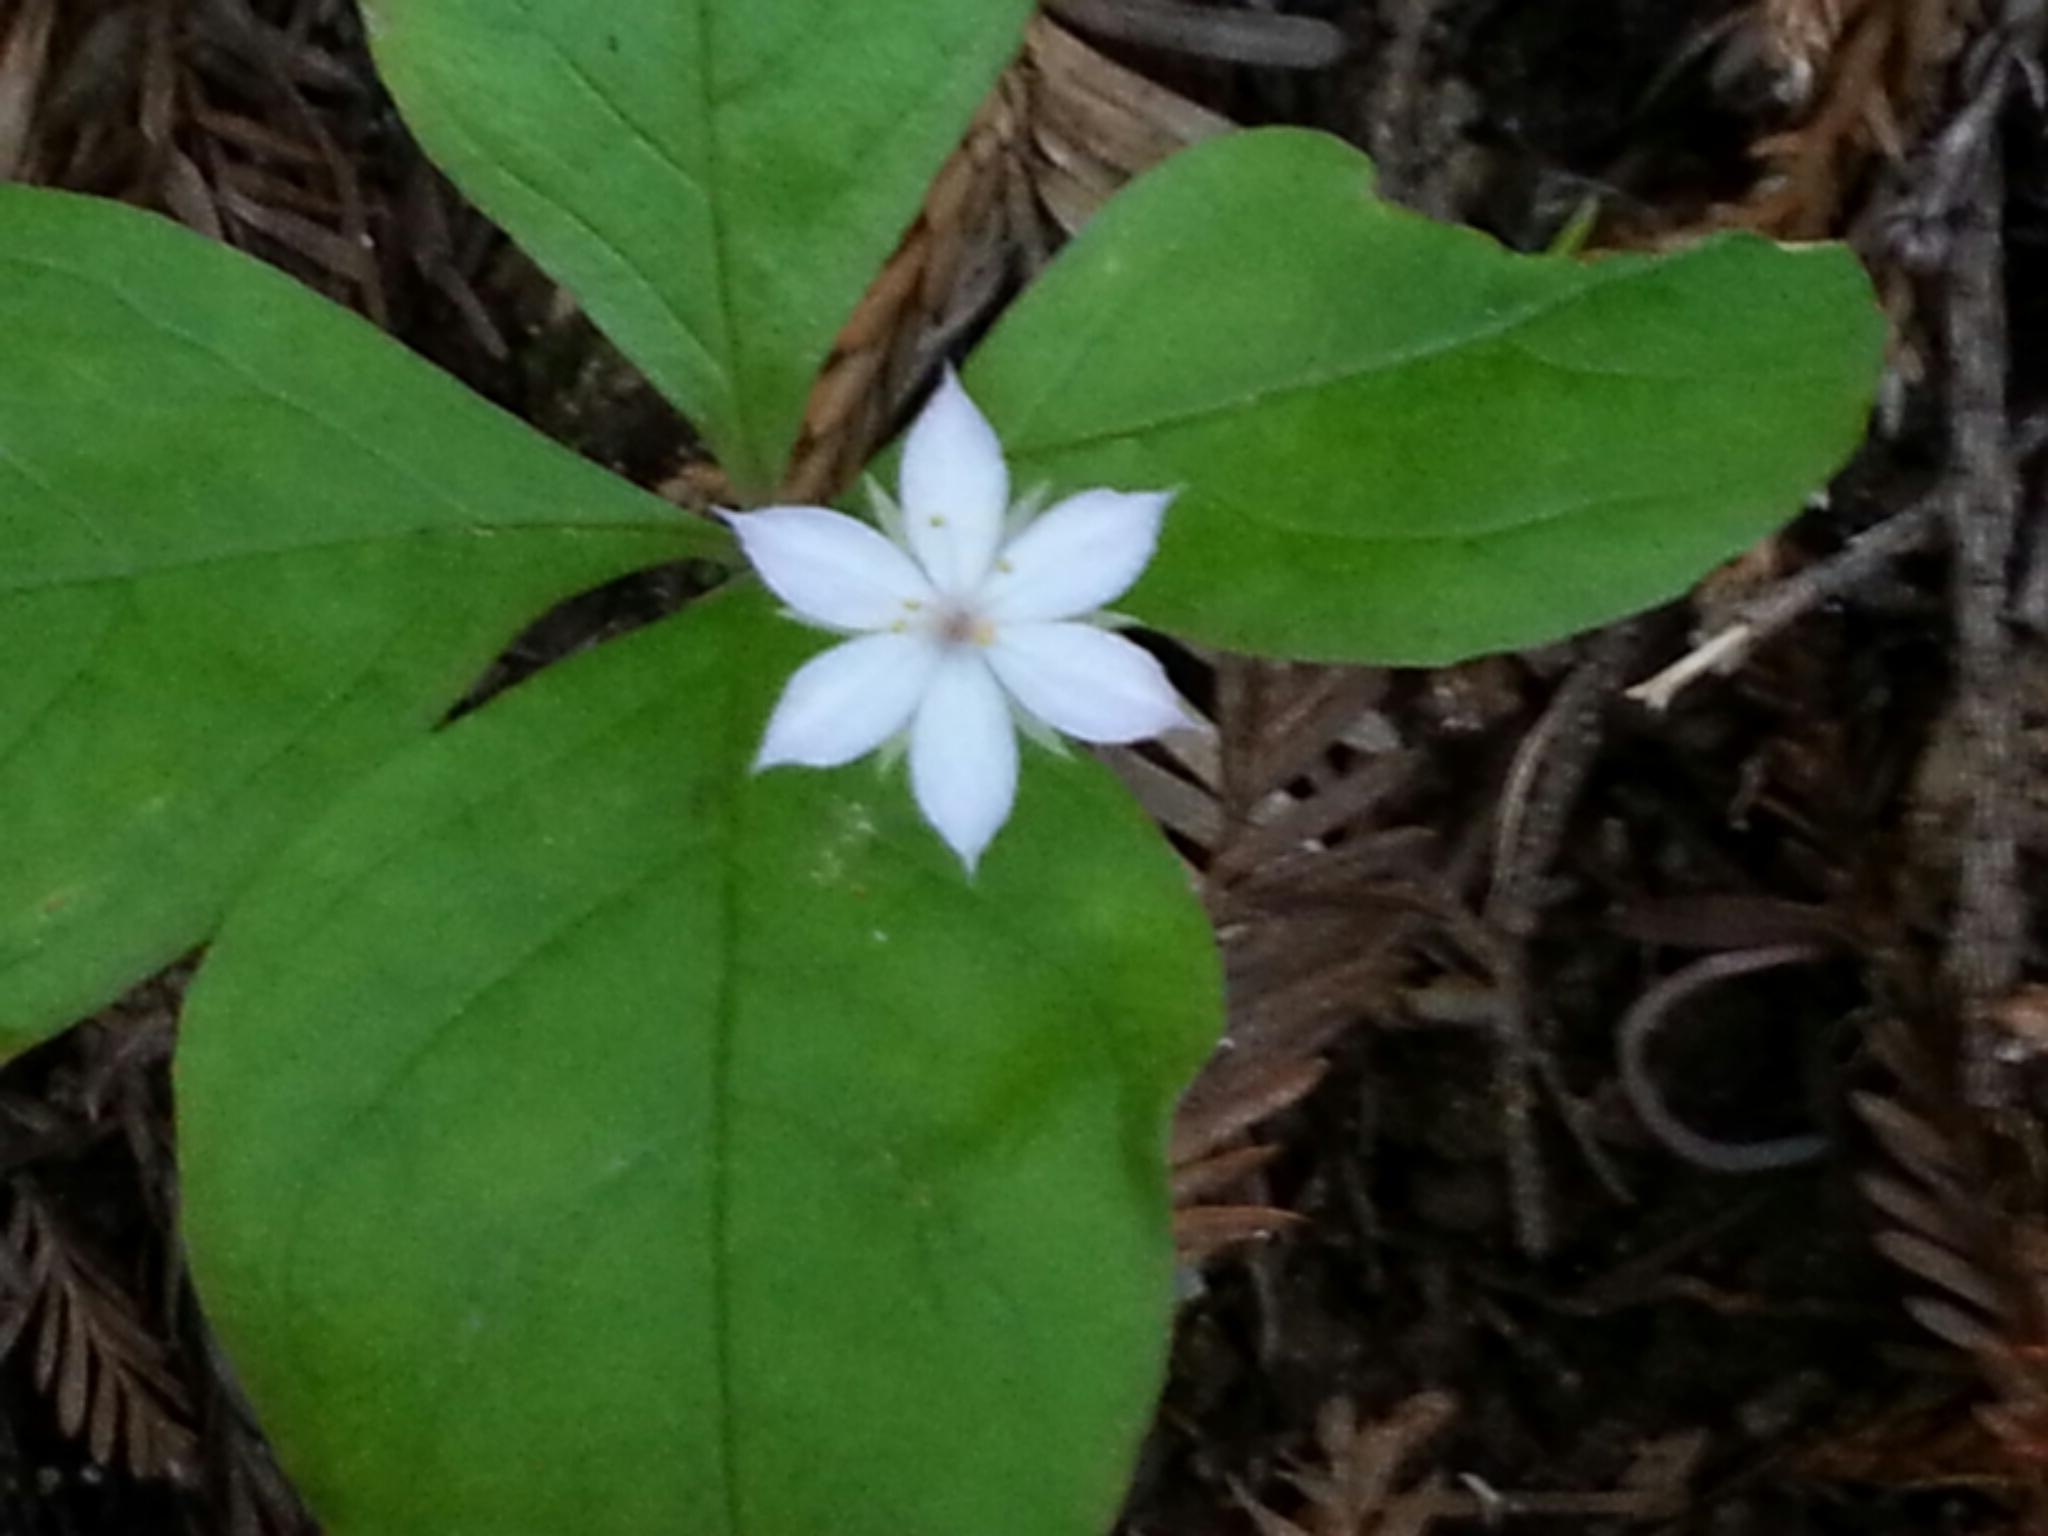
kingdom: Plantae
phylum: Tracheophyta
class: Magnoliopsida
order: Ericales
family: Primulaceae
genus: Lysimachia
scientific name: Lysimachia latifolia
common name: Pacific starflower
